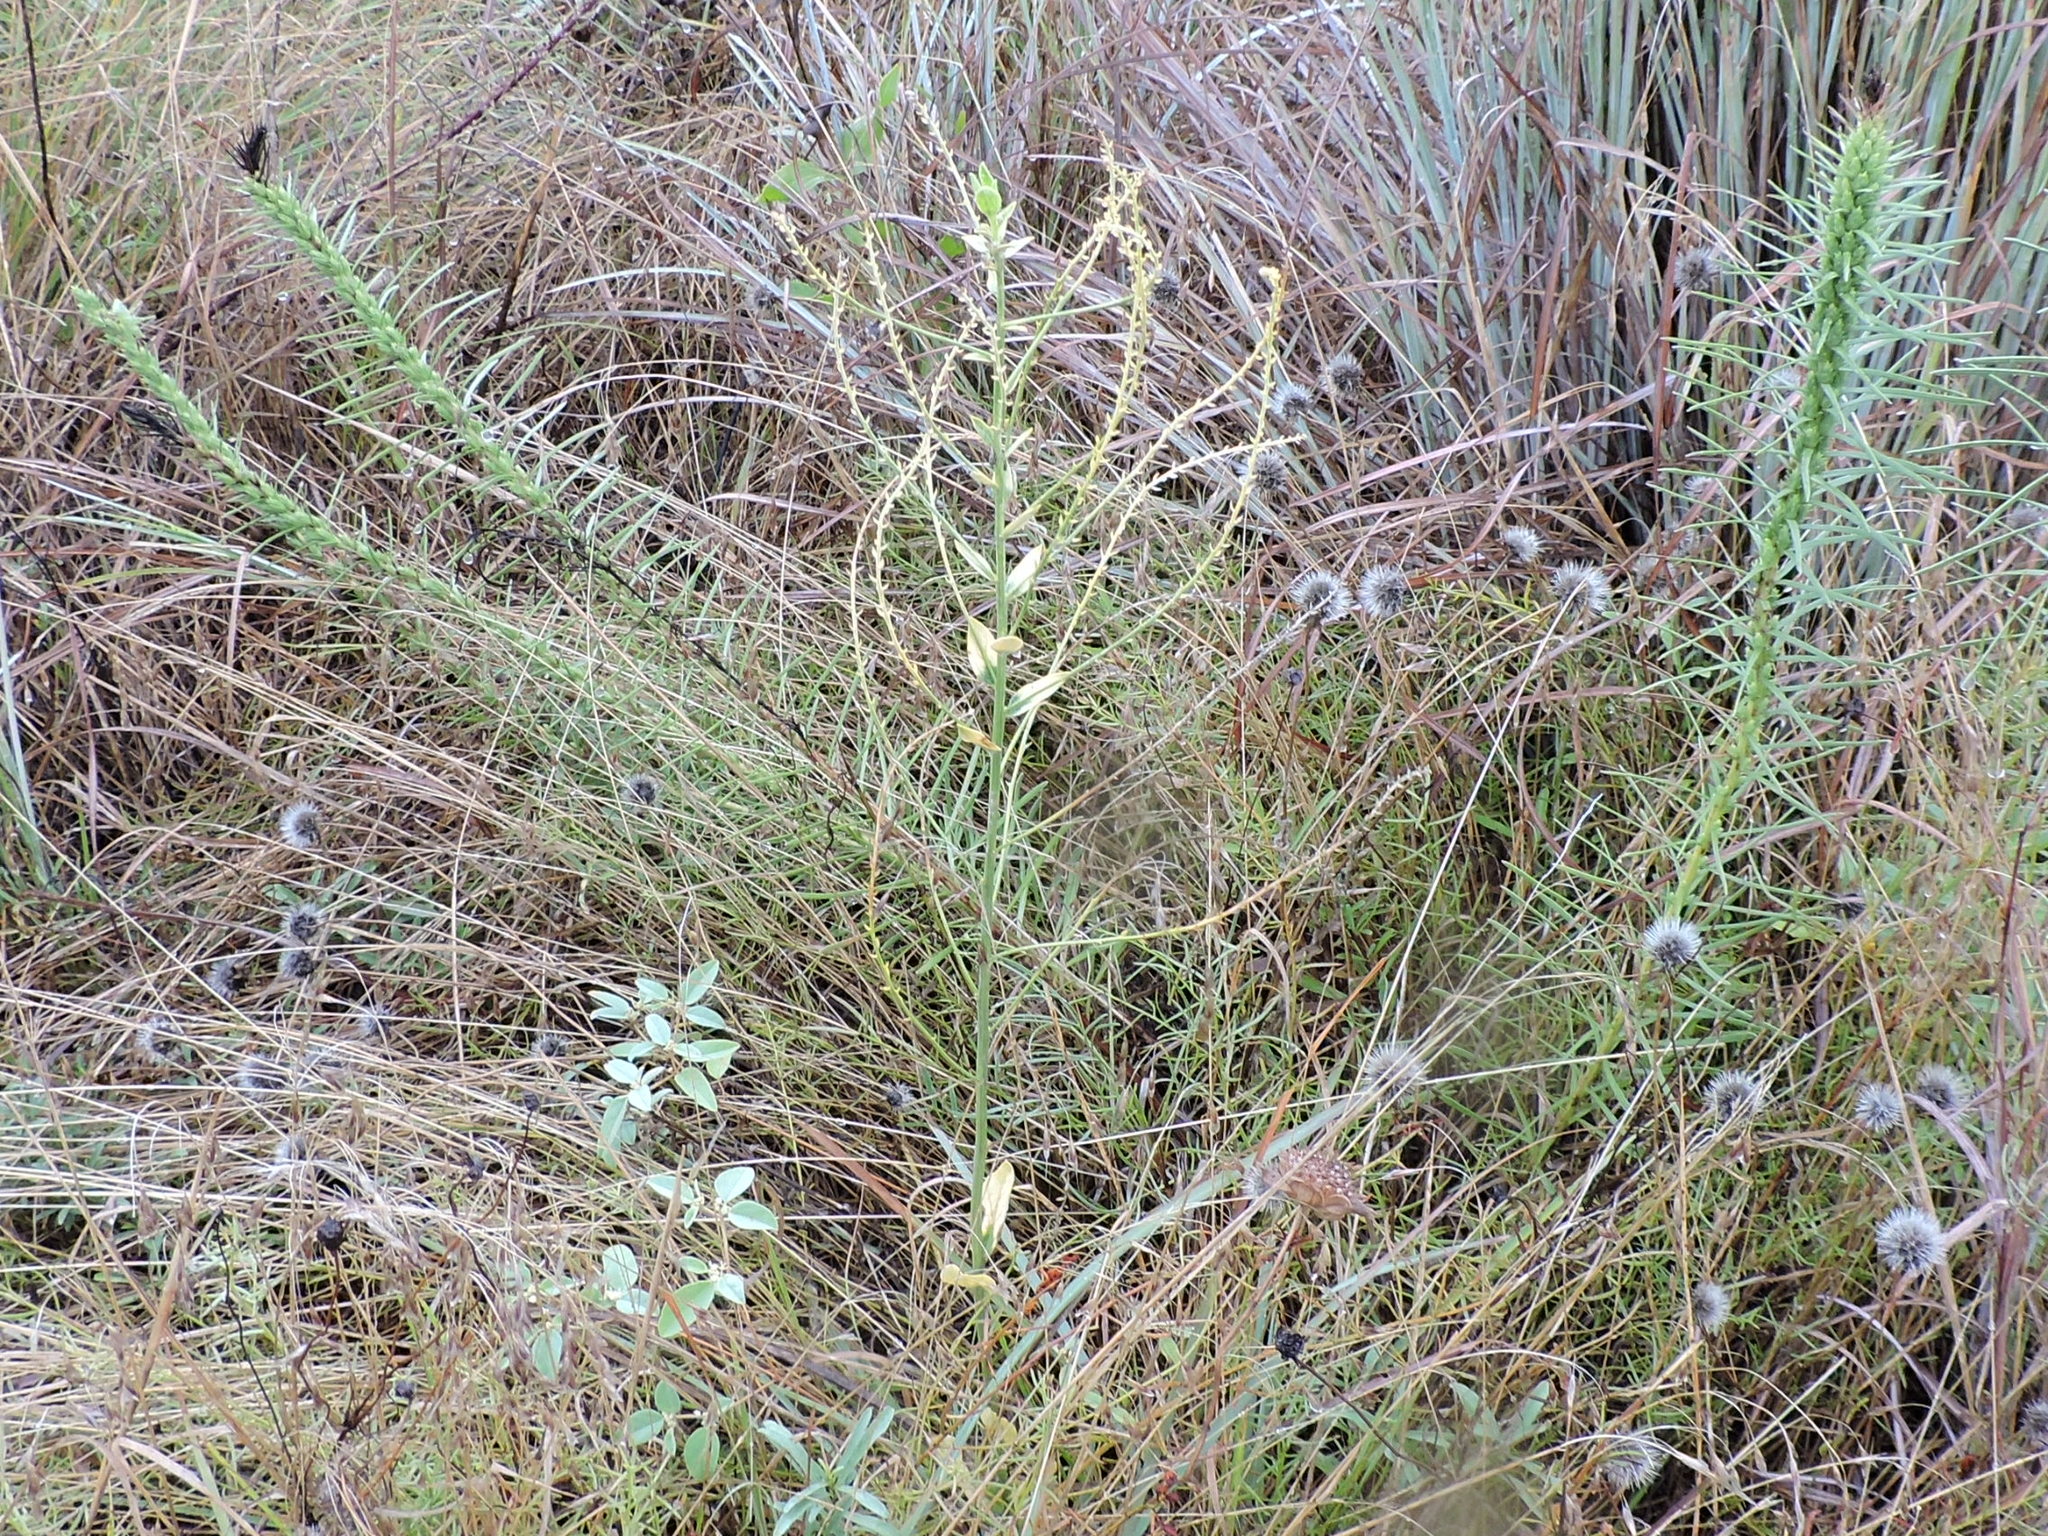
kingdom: Plantae
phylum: Tracheophyta
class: Magnoliopsida
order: Malpighiales
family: Euphorbiaceae
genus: Ditaxis
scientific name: Ditaxis mercurialina
